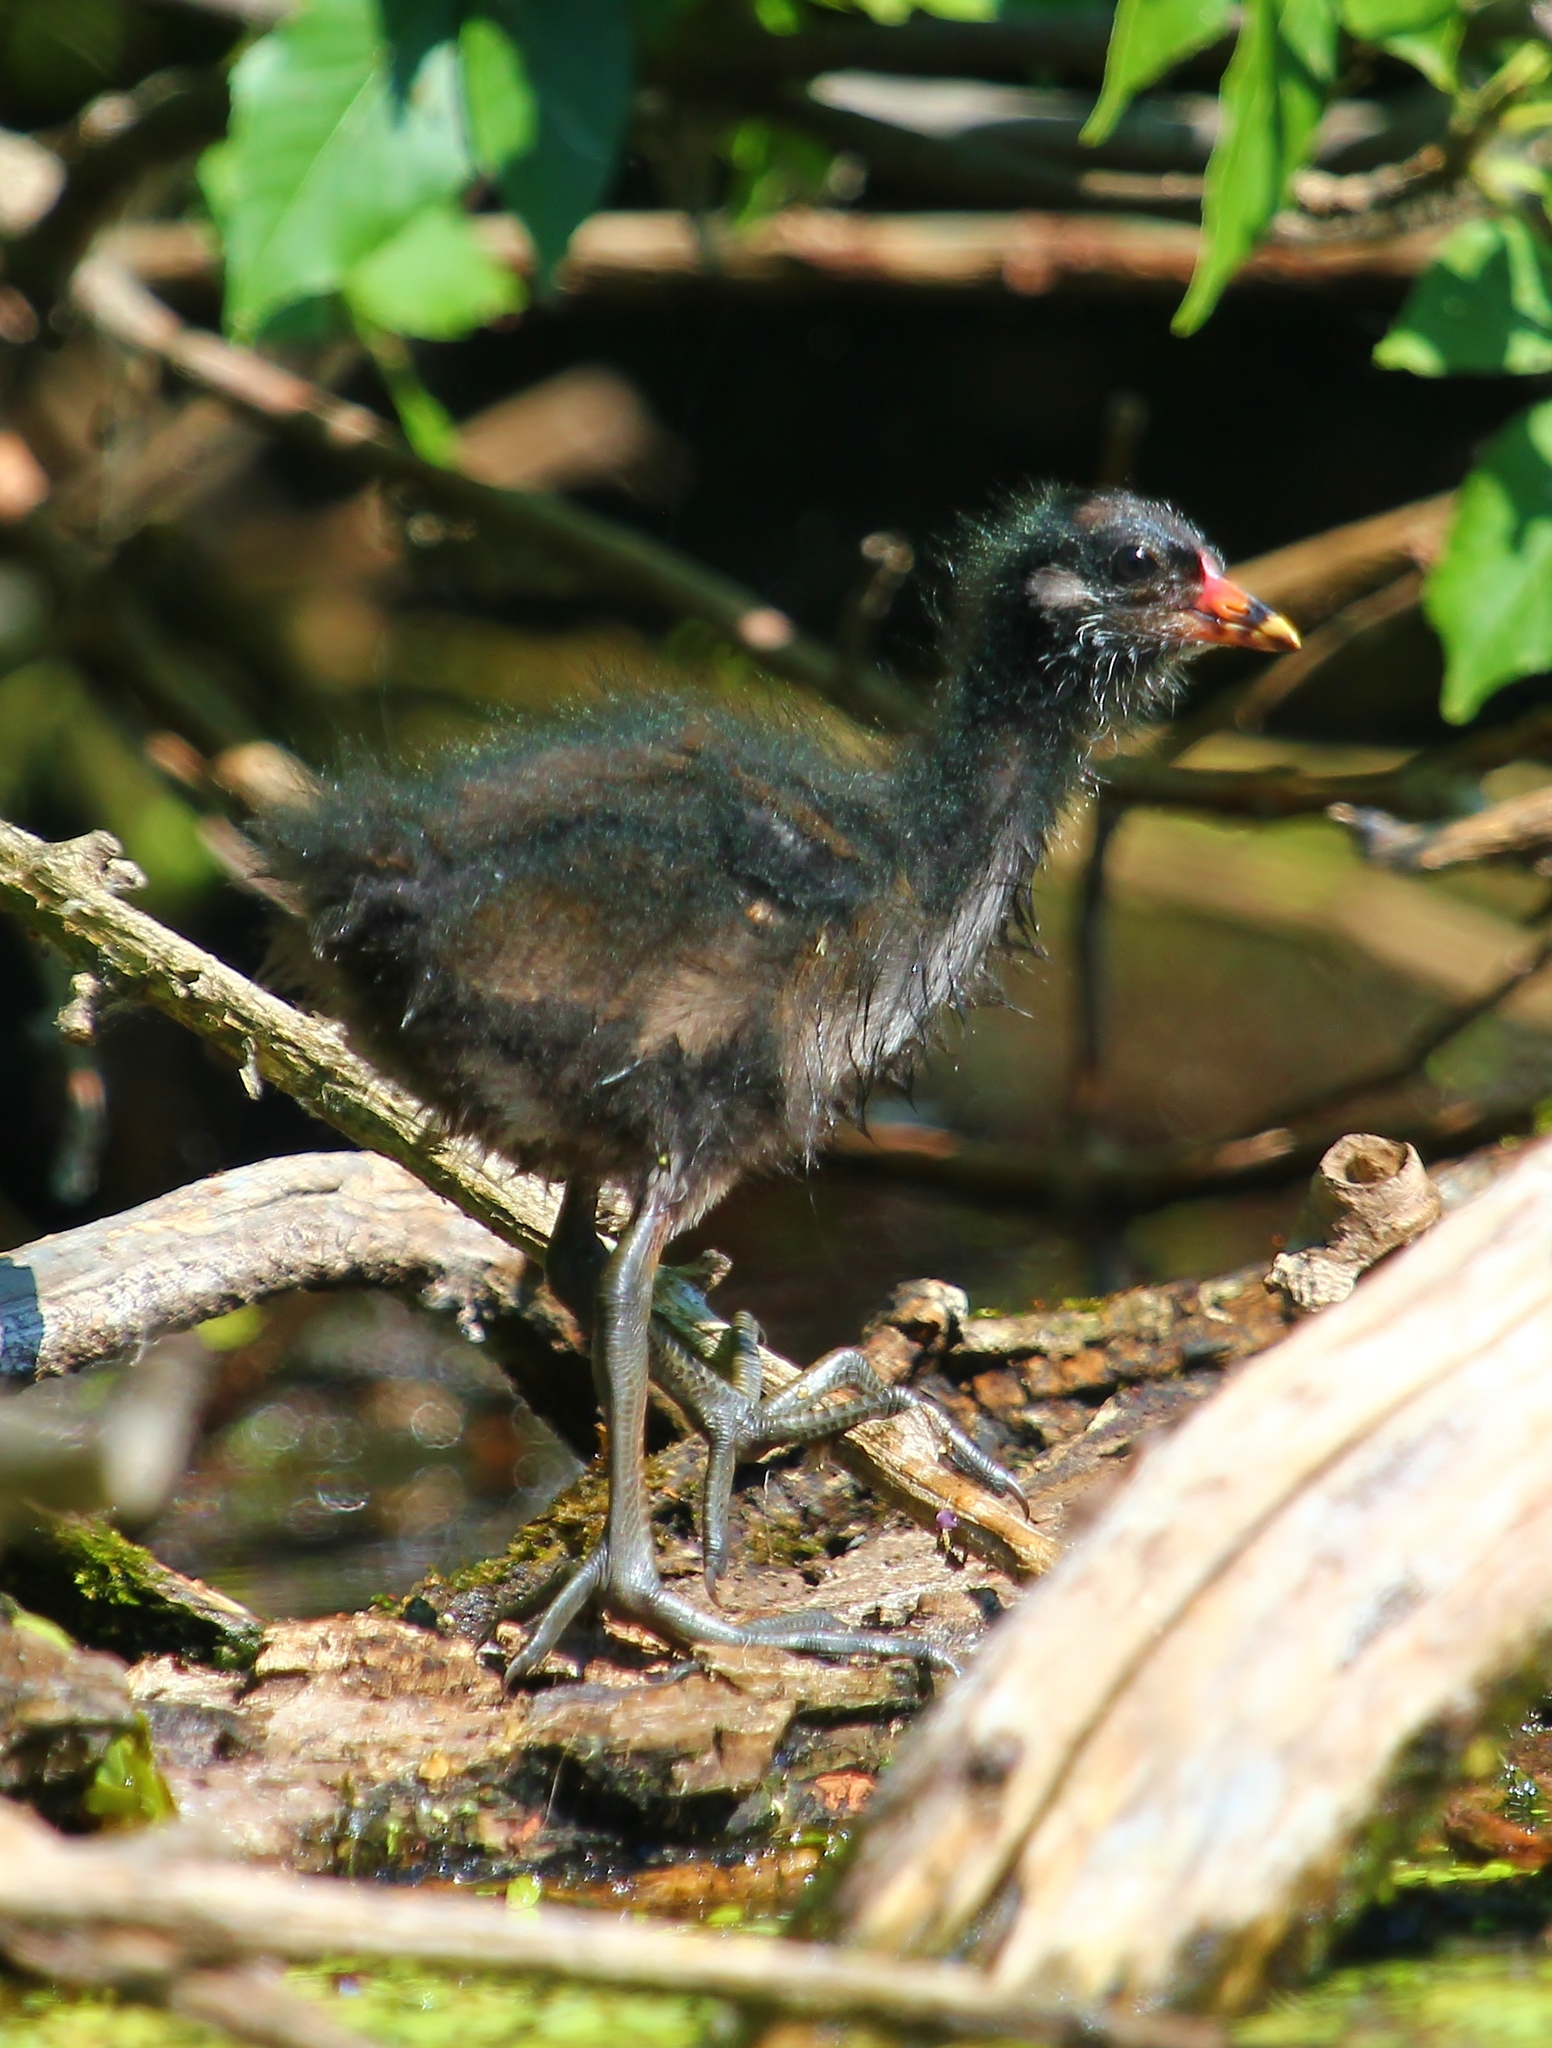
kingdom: Animalia
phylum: Chordata
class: Aves
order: Gruiformes
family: Rallidae
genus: Gallinula
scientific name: Gallinula chloropus
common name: Common moorhen
